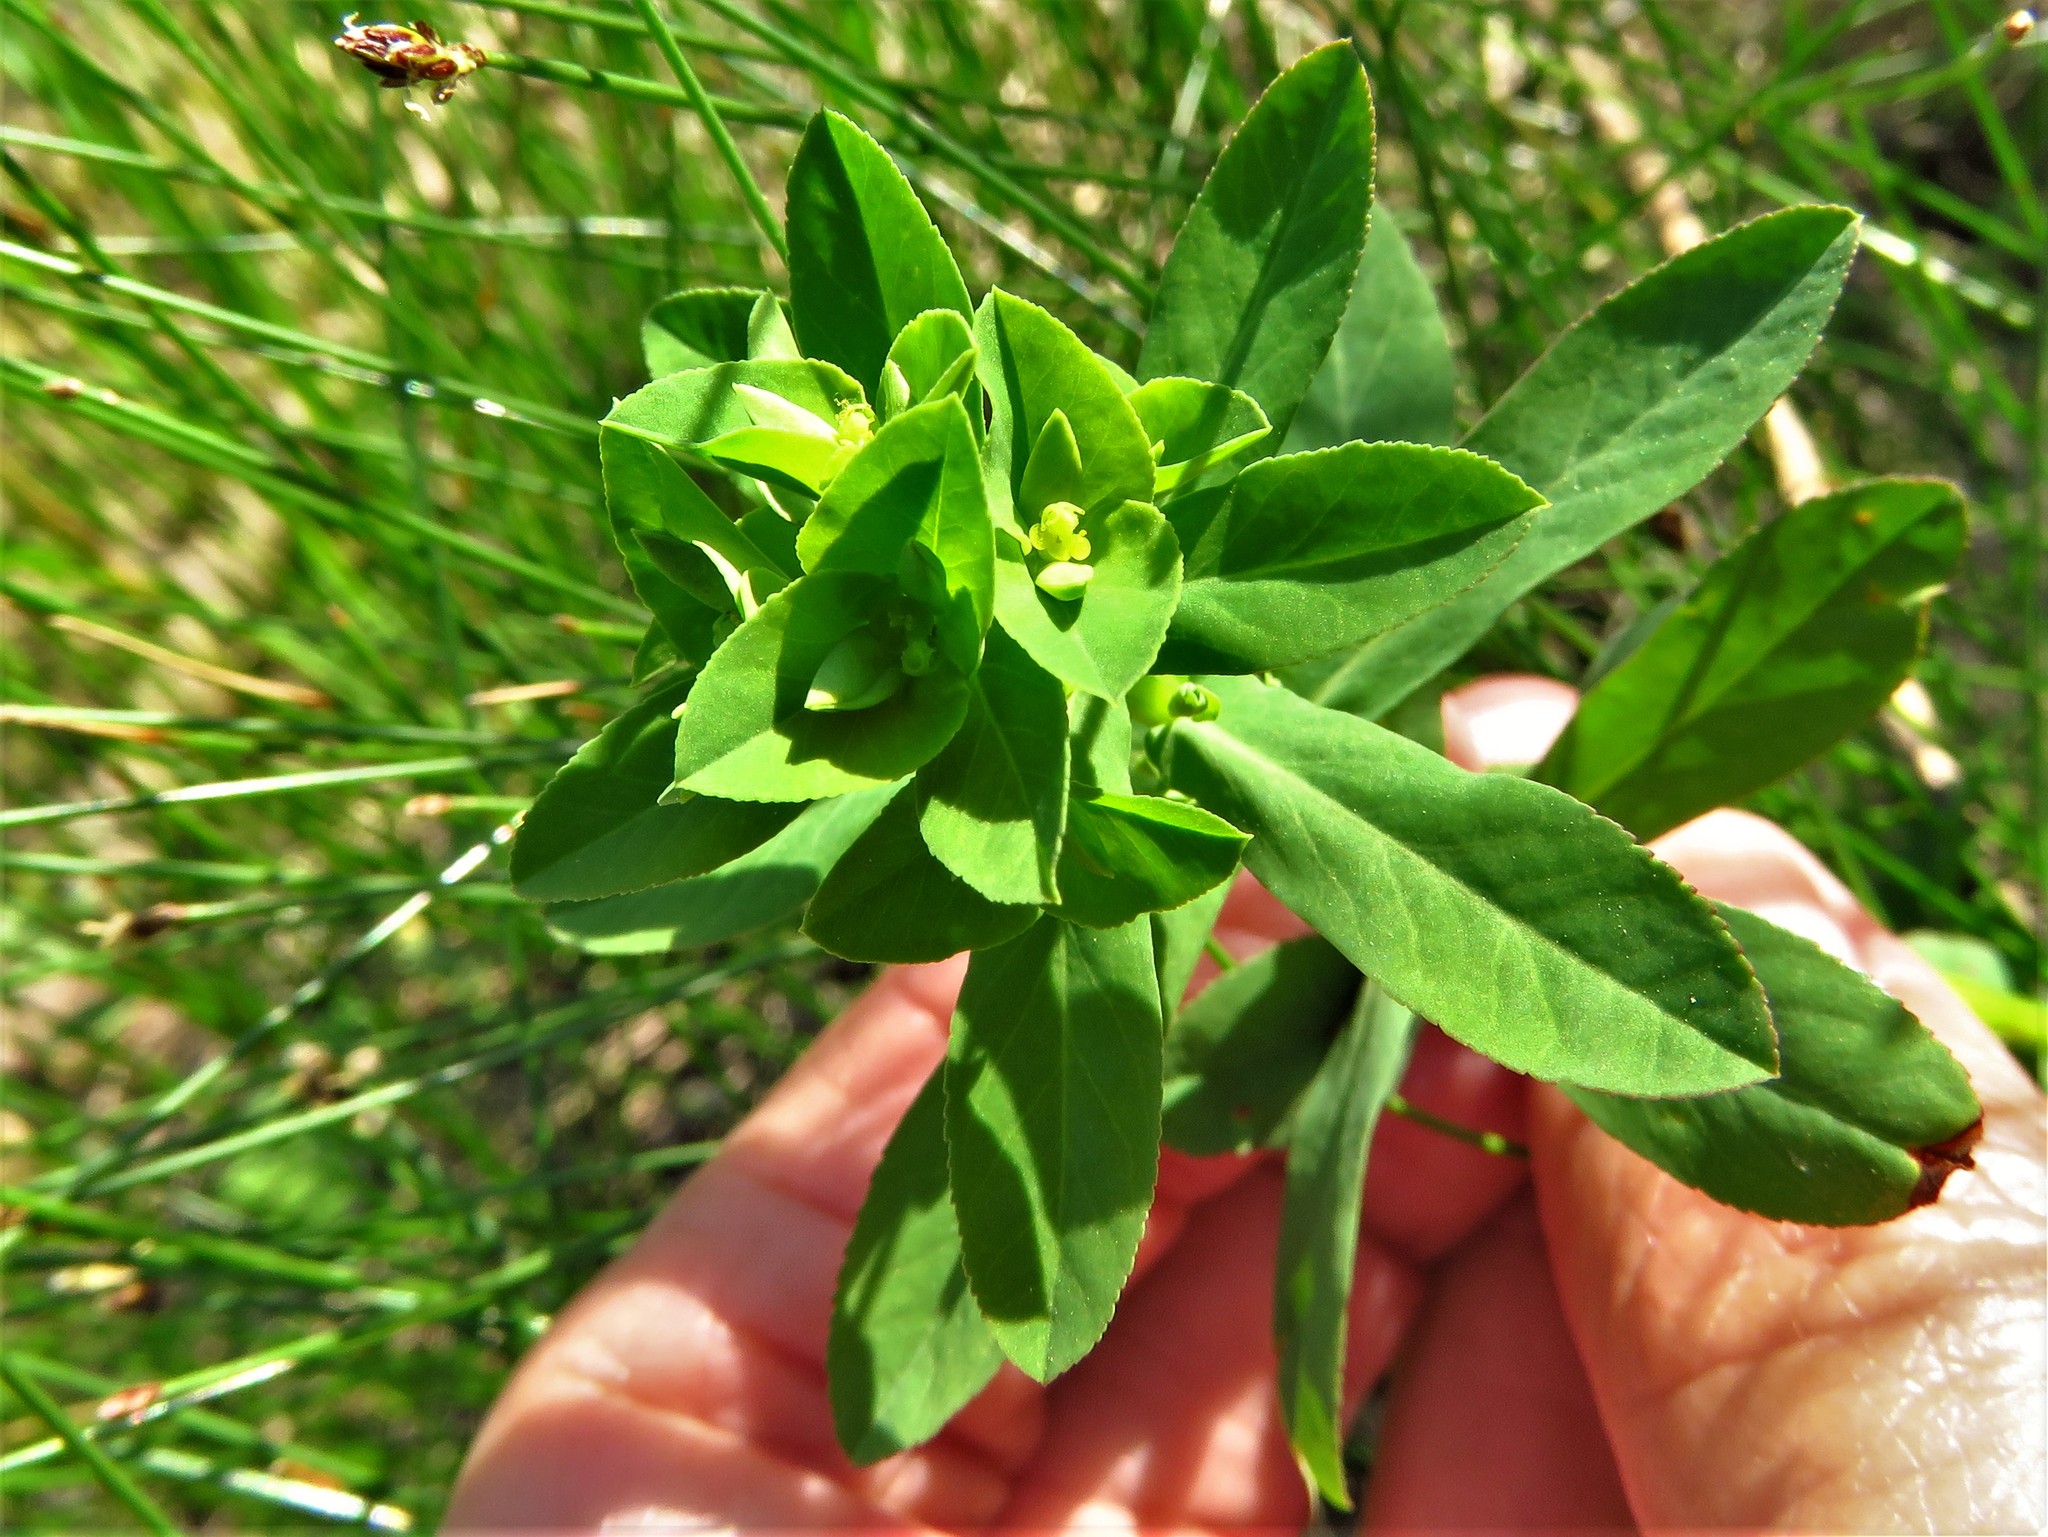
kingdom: Plantae
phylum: Tracheophyta
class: Magnoliopsida
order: Malpighiales
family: Euphorbiaceae
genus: Euphorbia
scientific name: Euphorbia spathulata
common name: Blunt spurge
